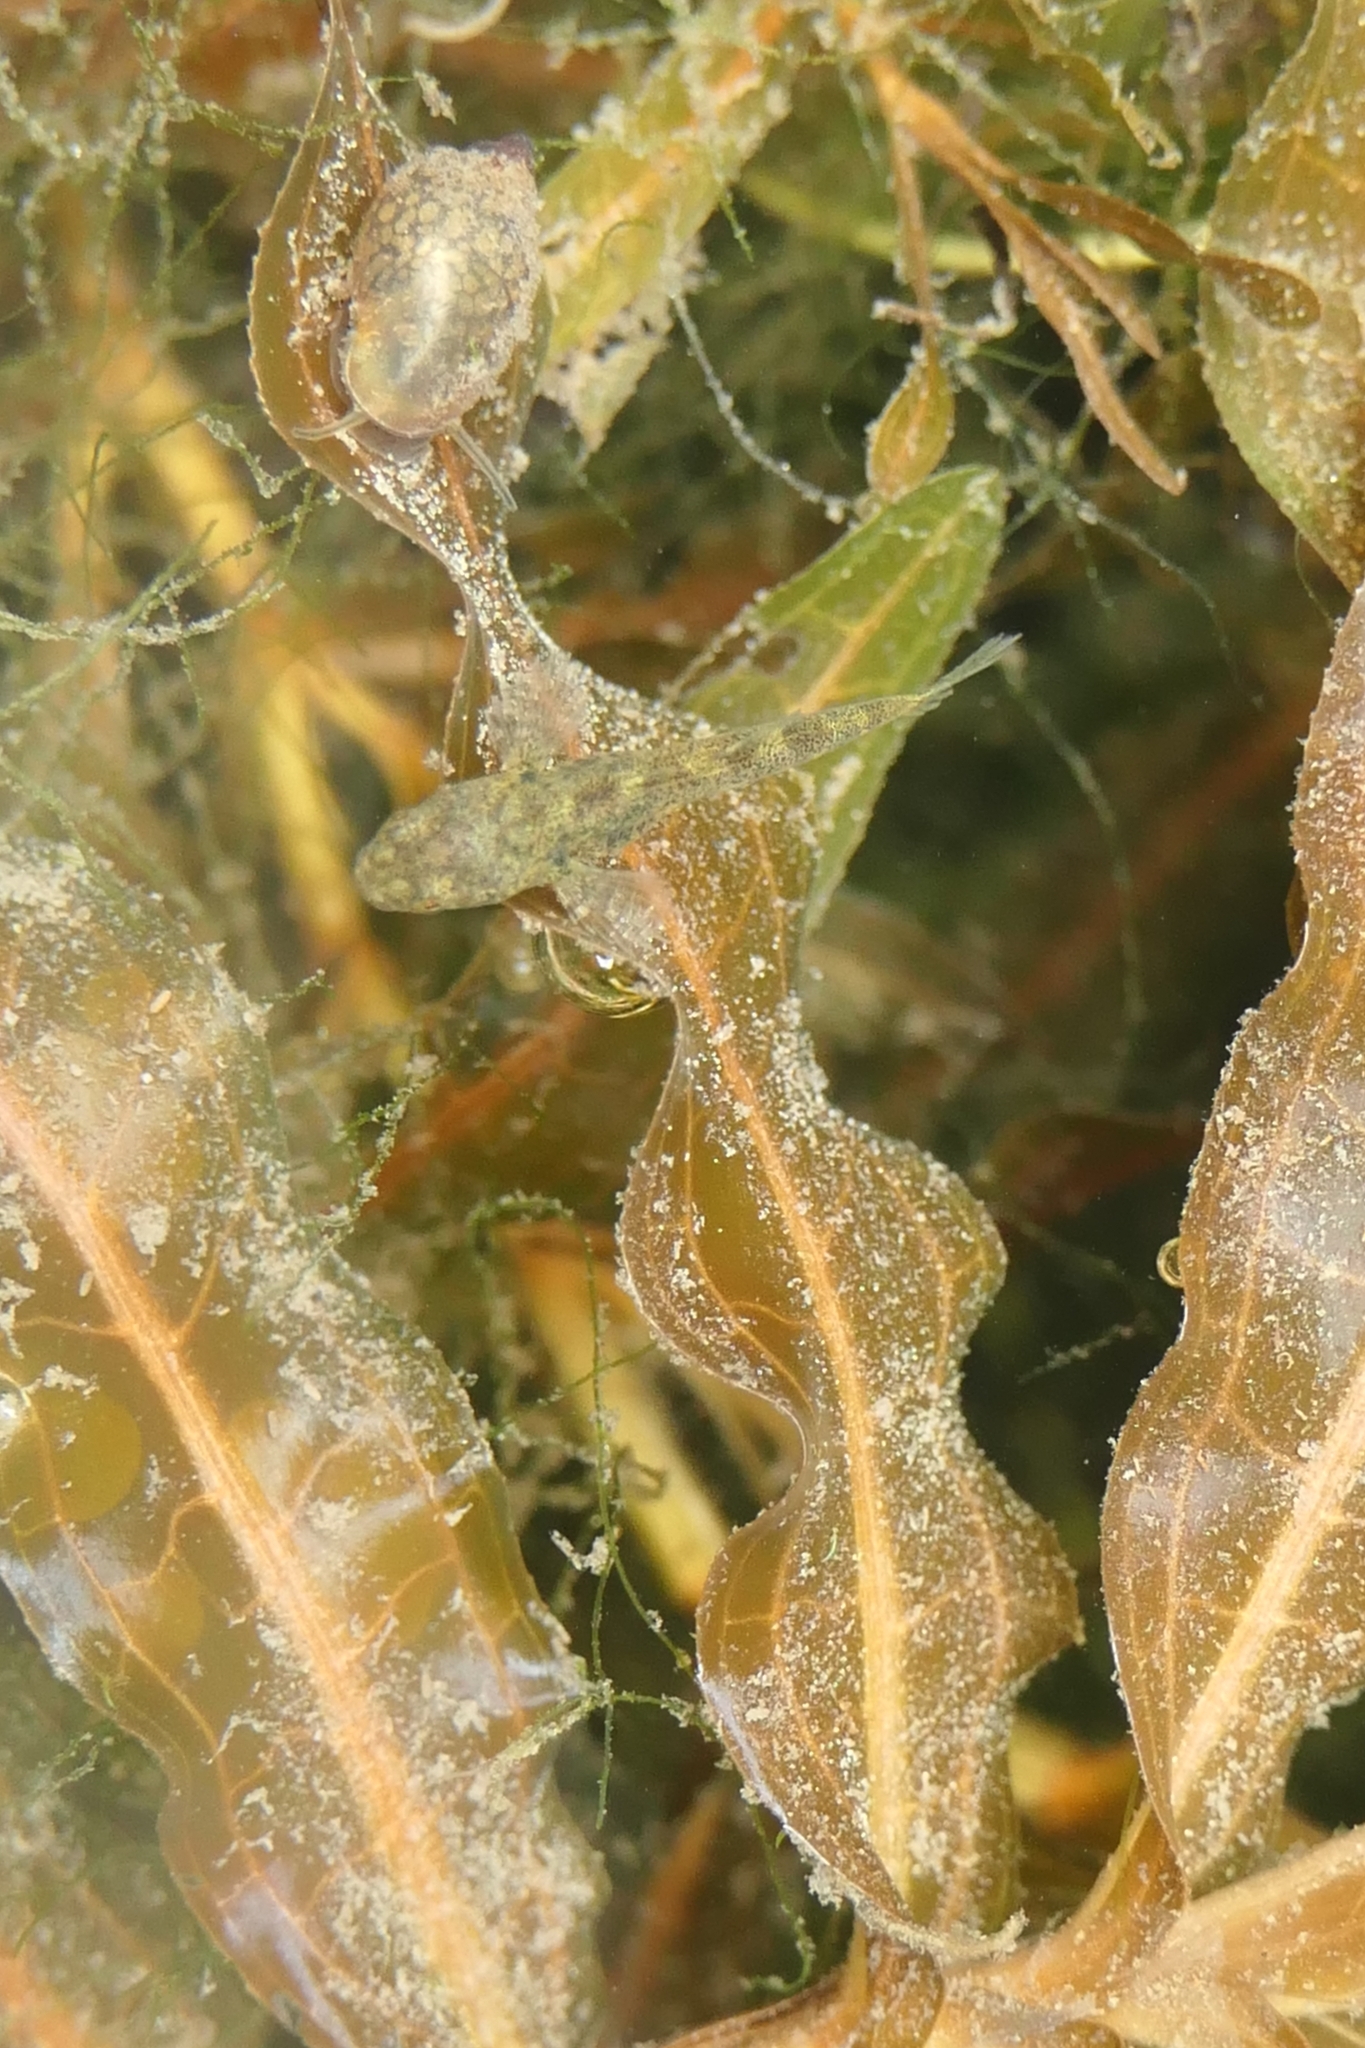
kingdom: Plantae
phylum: Tracheophyta
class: Liliopsida
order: Alismatales
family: Potamogetonaceae
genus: Potamogeton
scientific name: Potamogeton crispus
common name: Curled pondweed
